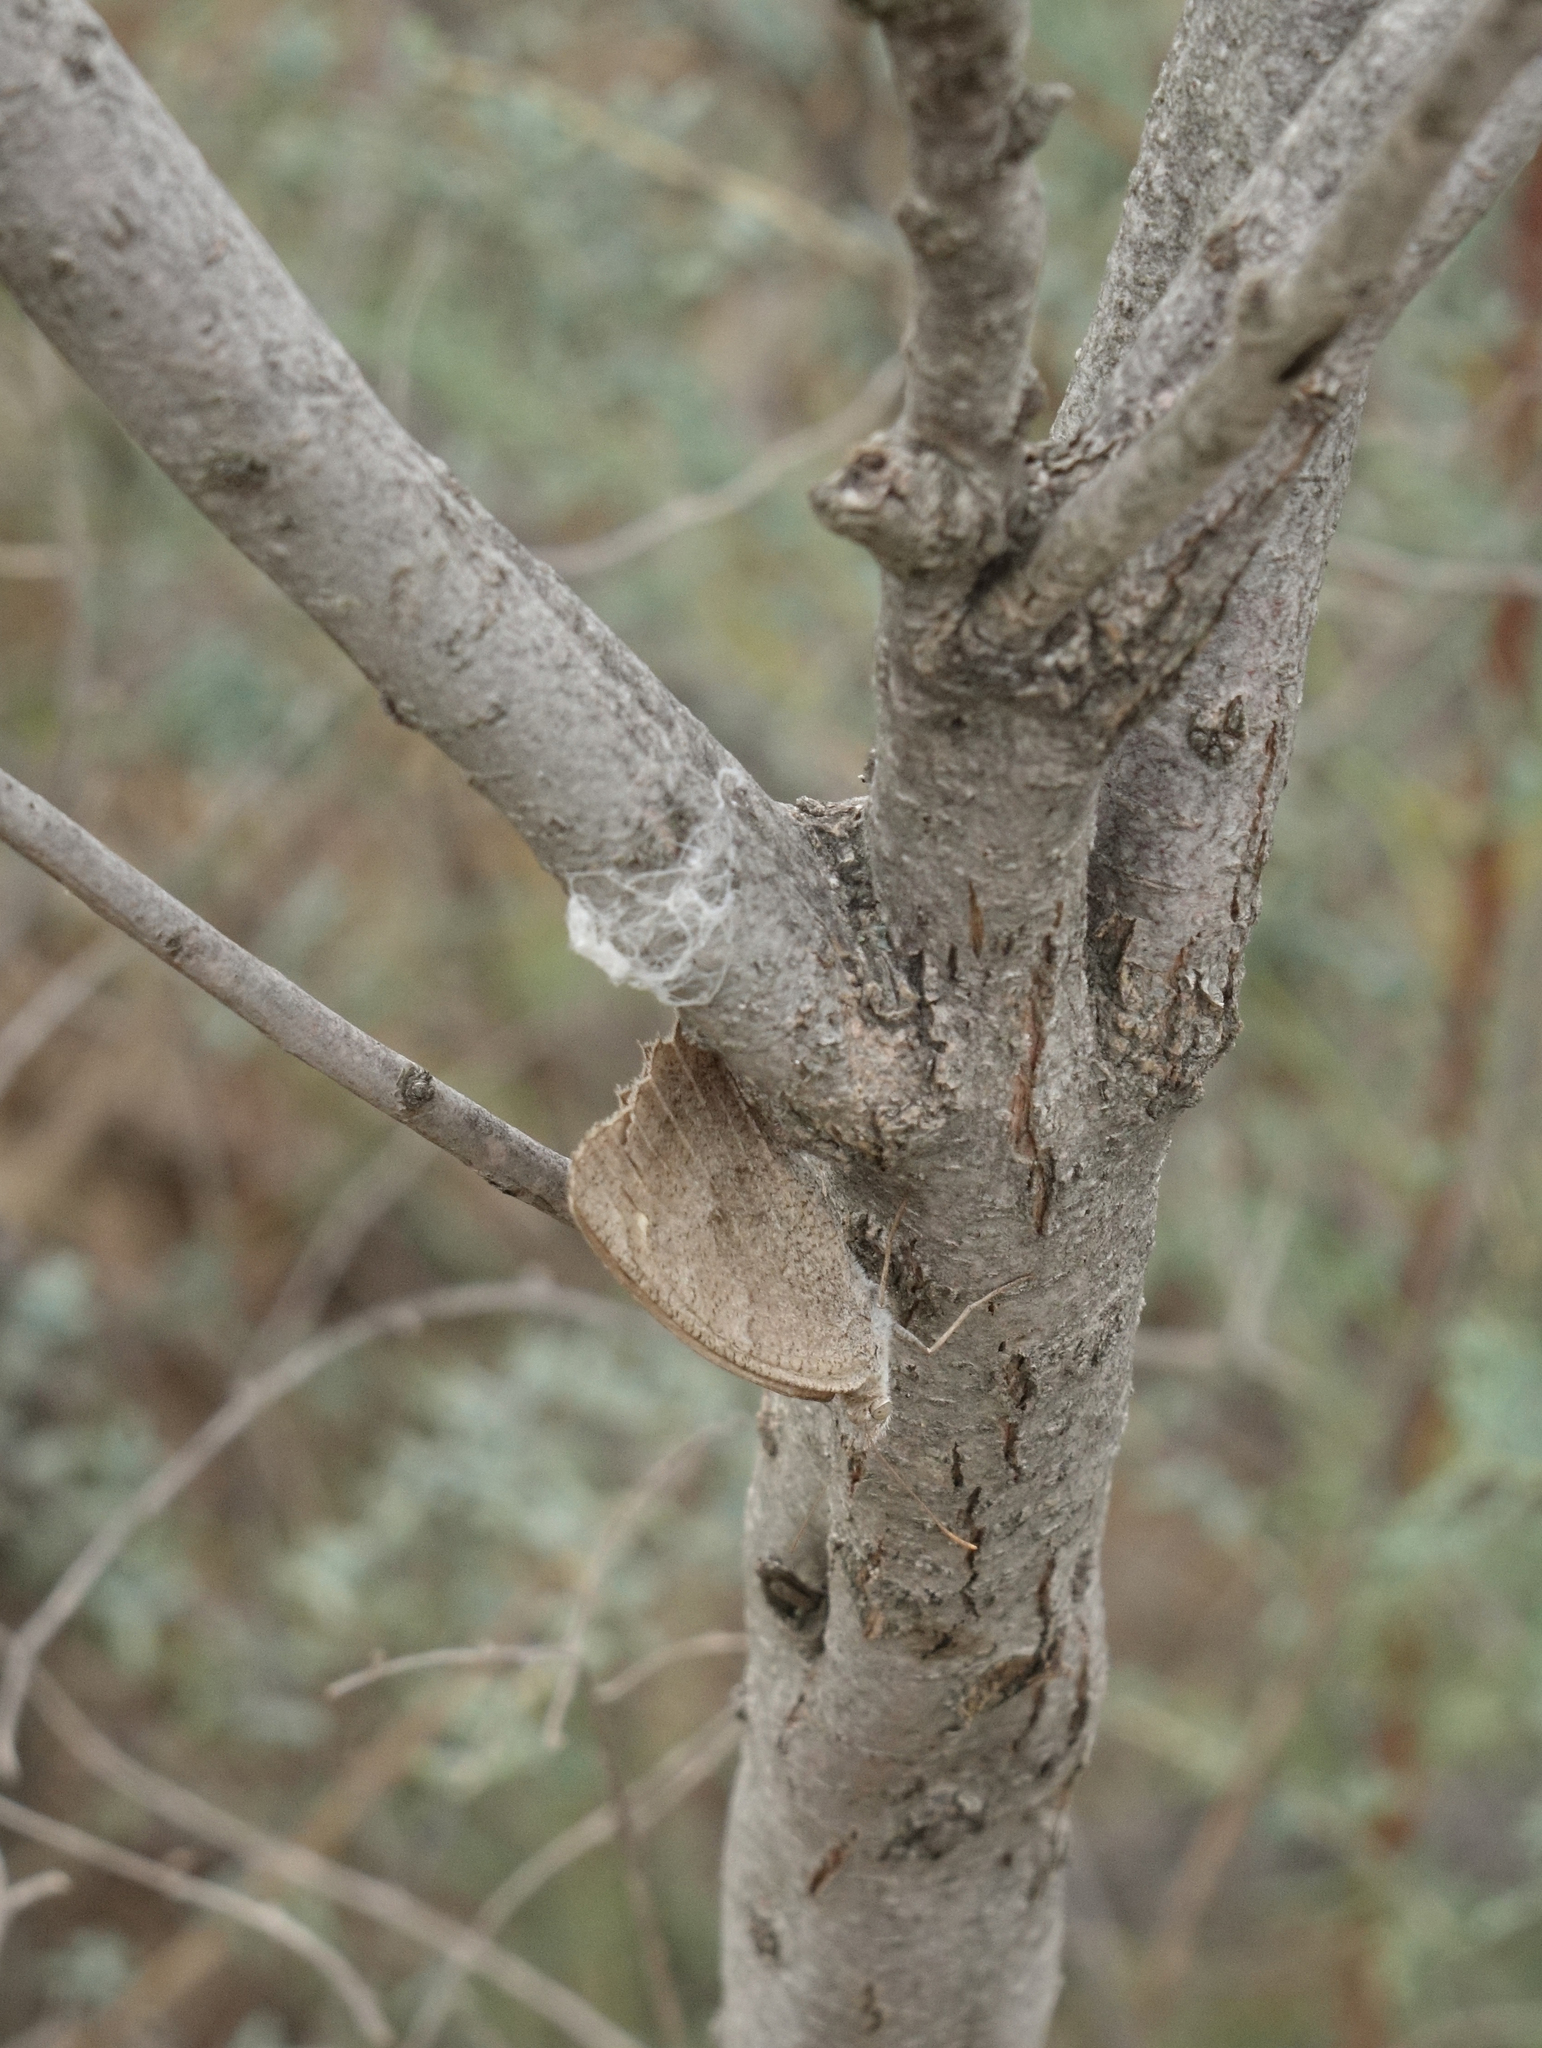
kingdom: Animalia
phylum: Arthropoda
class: Insecta
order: Lepidoptera
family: Nymphalidae
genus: Maniola
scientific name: Maniola jurtina
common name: Meadow brown
